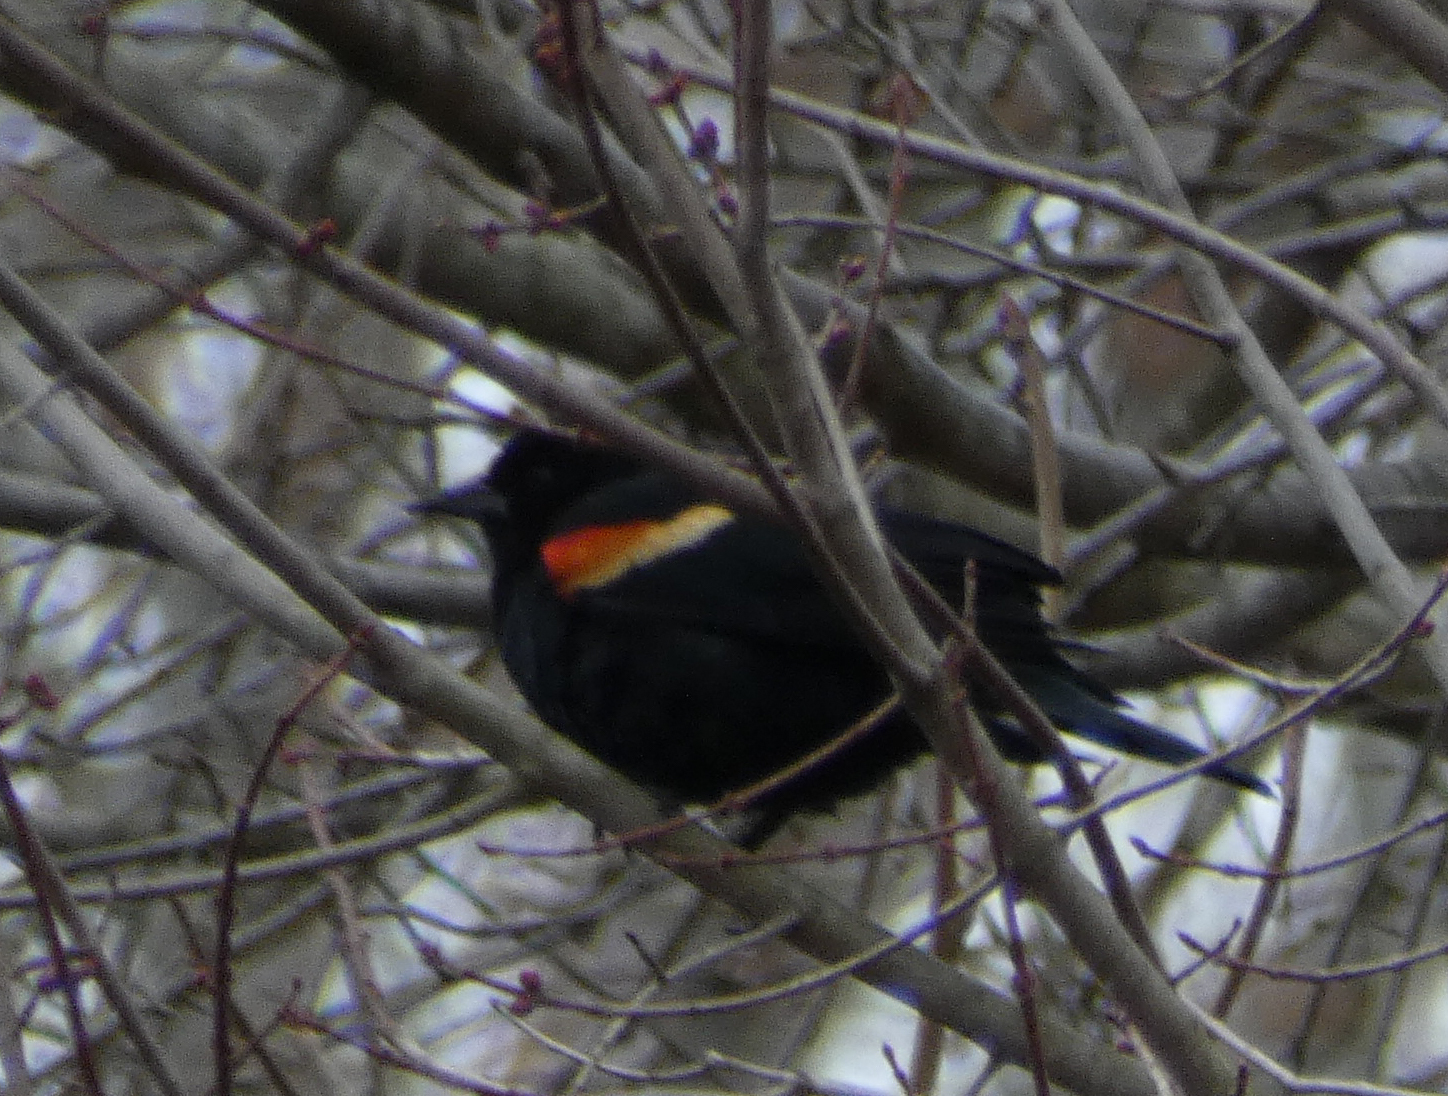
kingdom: Animalia
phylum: Chordata
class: Aves
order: Passeriformes
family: Icteridae
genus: Agelaius
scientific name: Agelaius phoeniceus
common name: Red-winged blackbird
